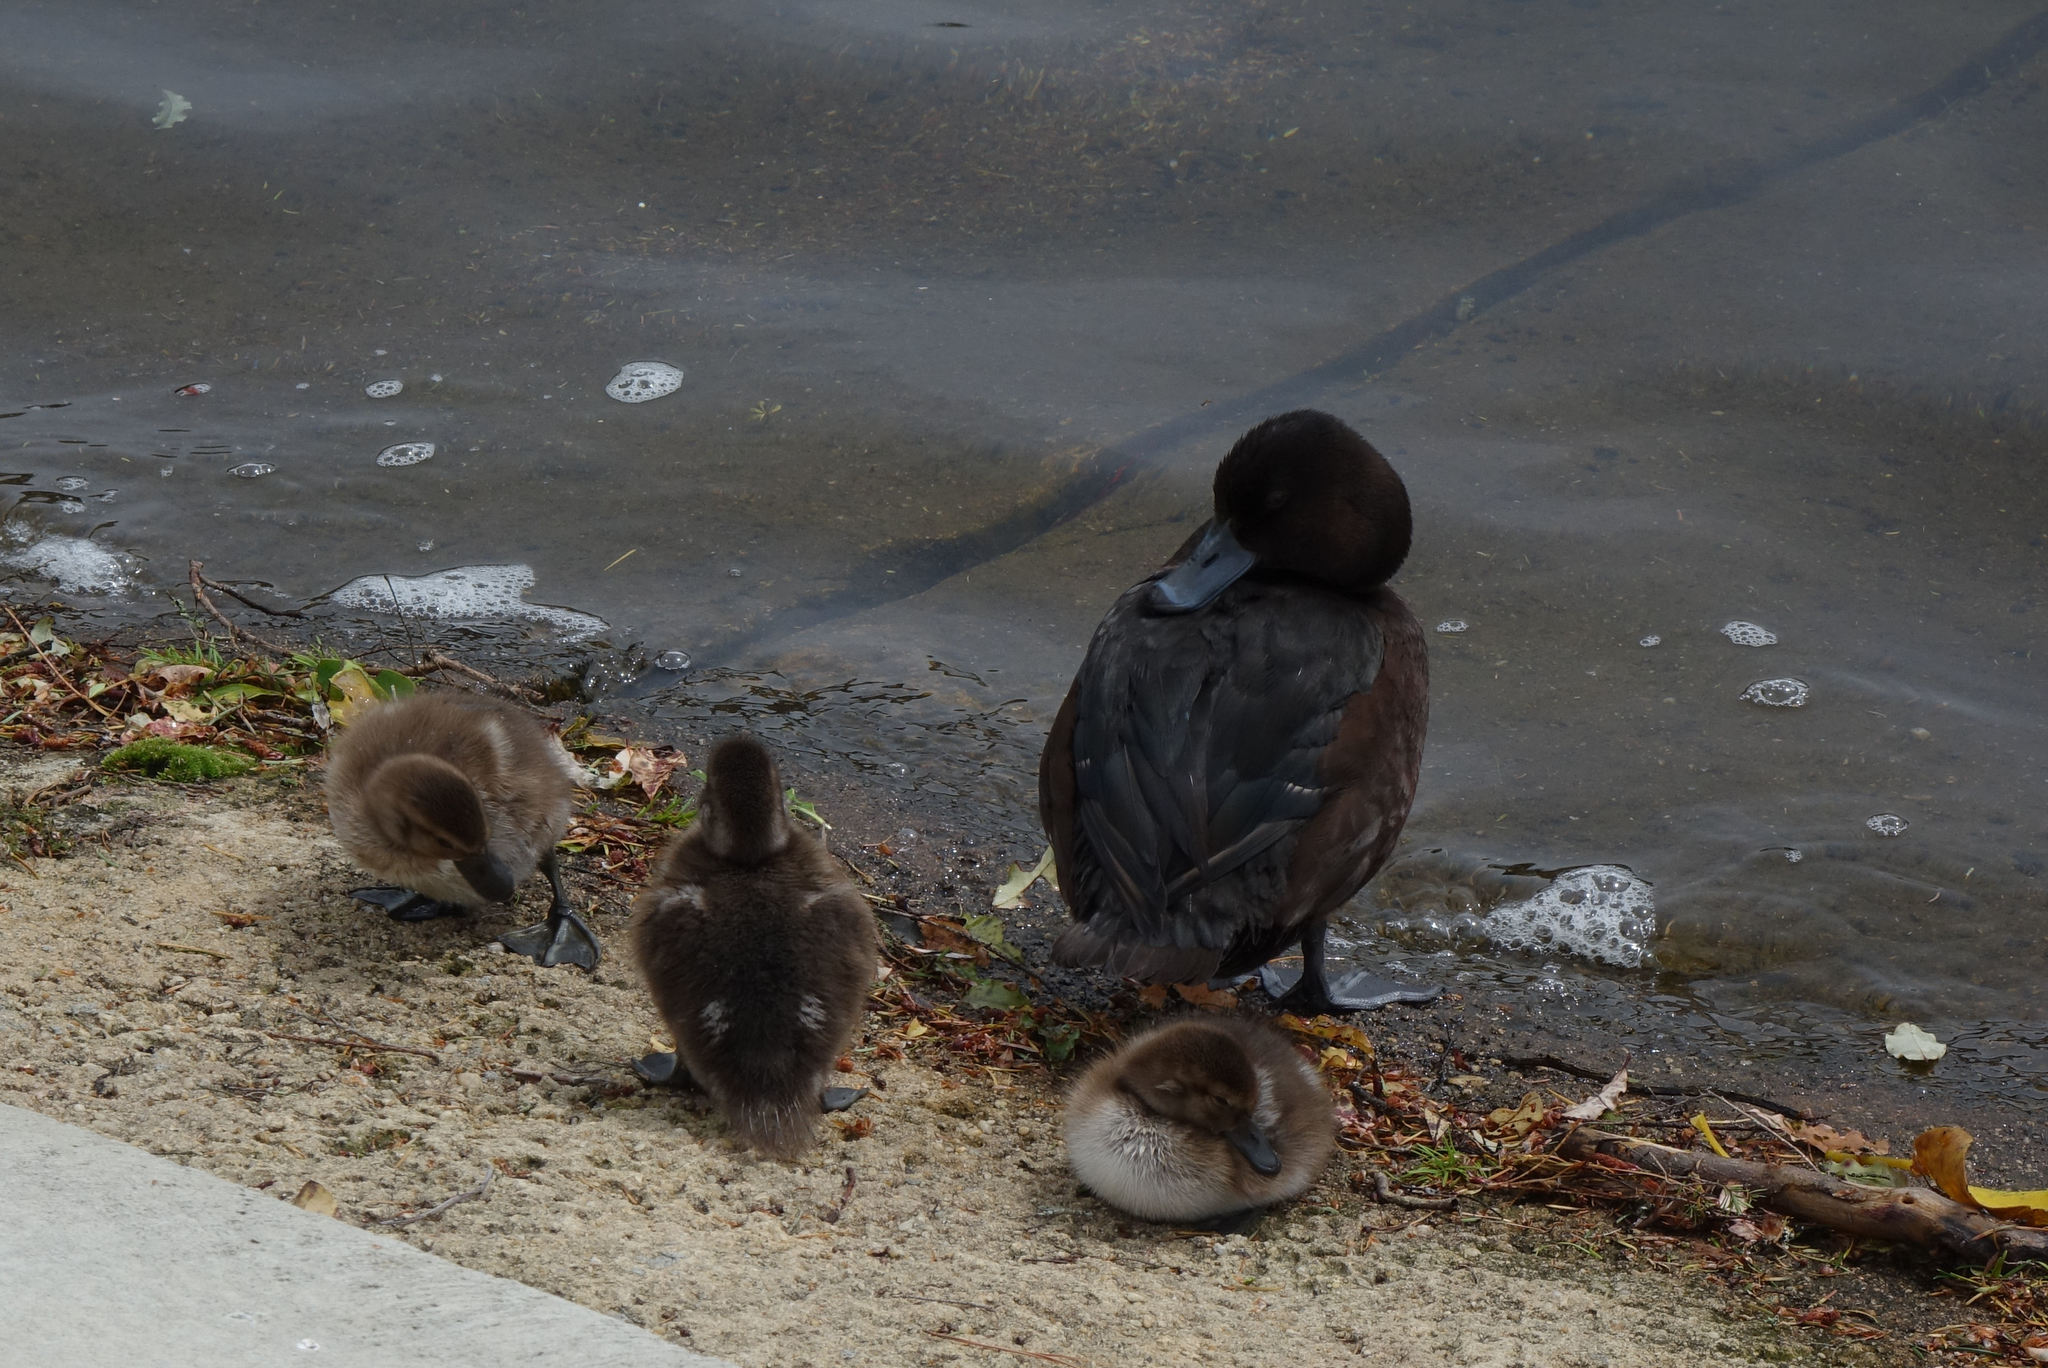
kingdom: Animalia
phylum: Chordata
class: Aves
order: Anseriformes
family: Anatidae
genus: Aythya
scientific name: Aythya novaeseelandiae
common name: New zealand scaup
